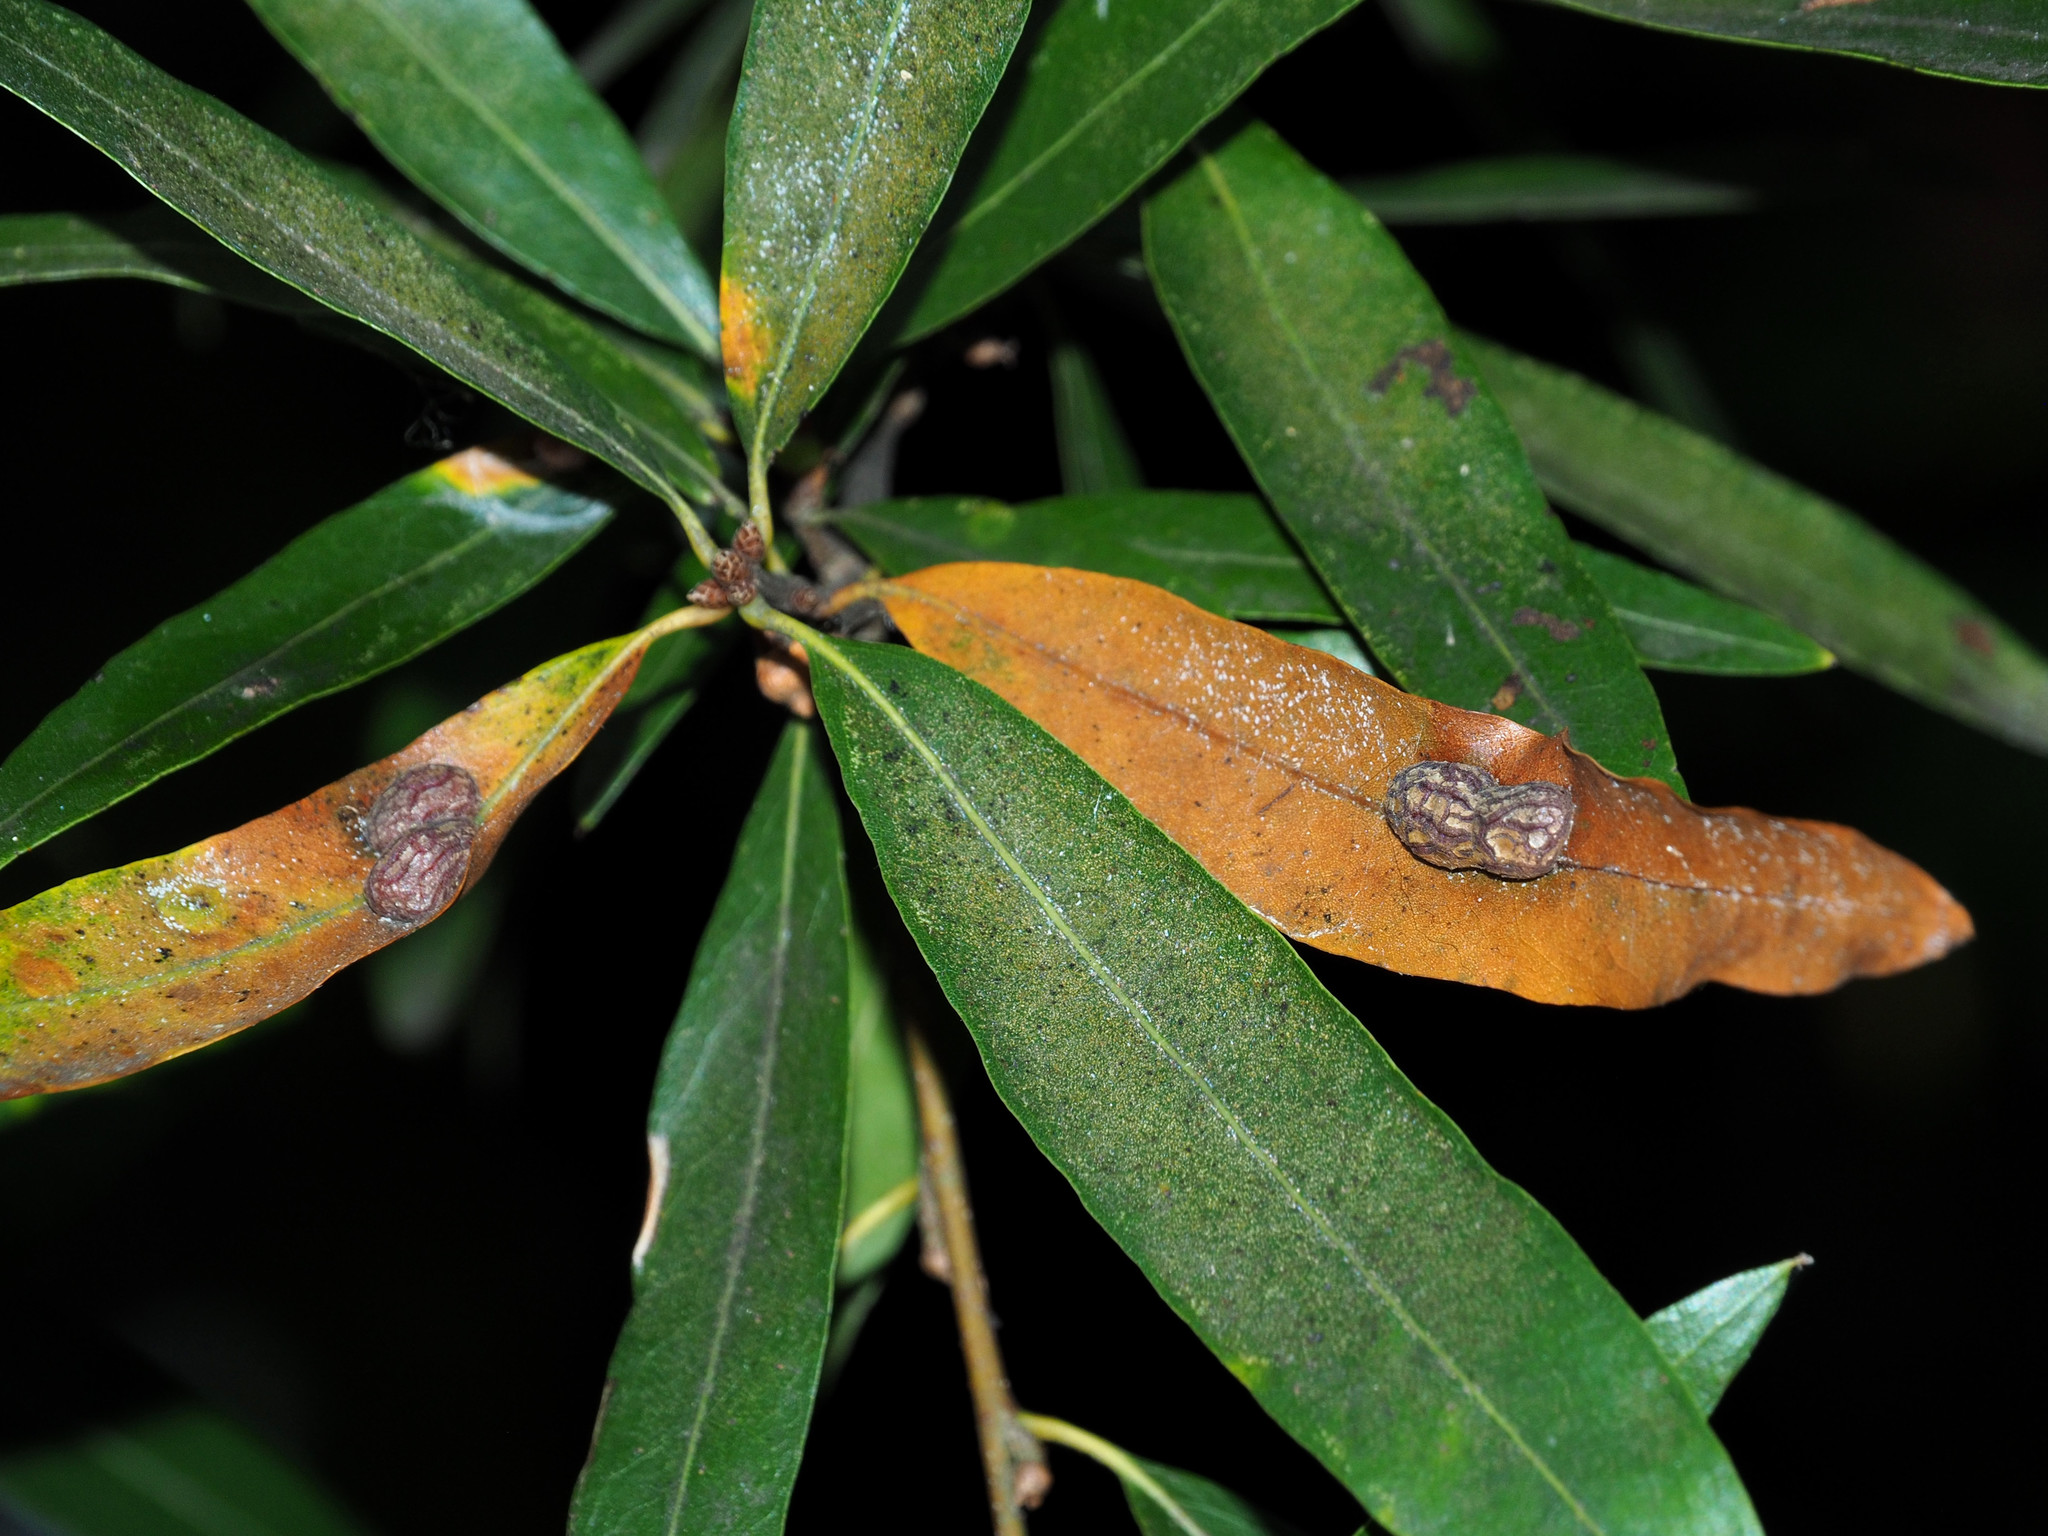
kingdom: Animalia
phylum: Arthropoda
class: Insecta
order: Diptera
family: Cecidomyiidae
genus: Polystepha
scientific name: Polystepha pilulae
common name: Oak leaf gall midge
